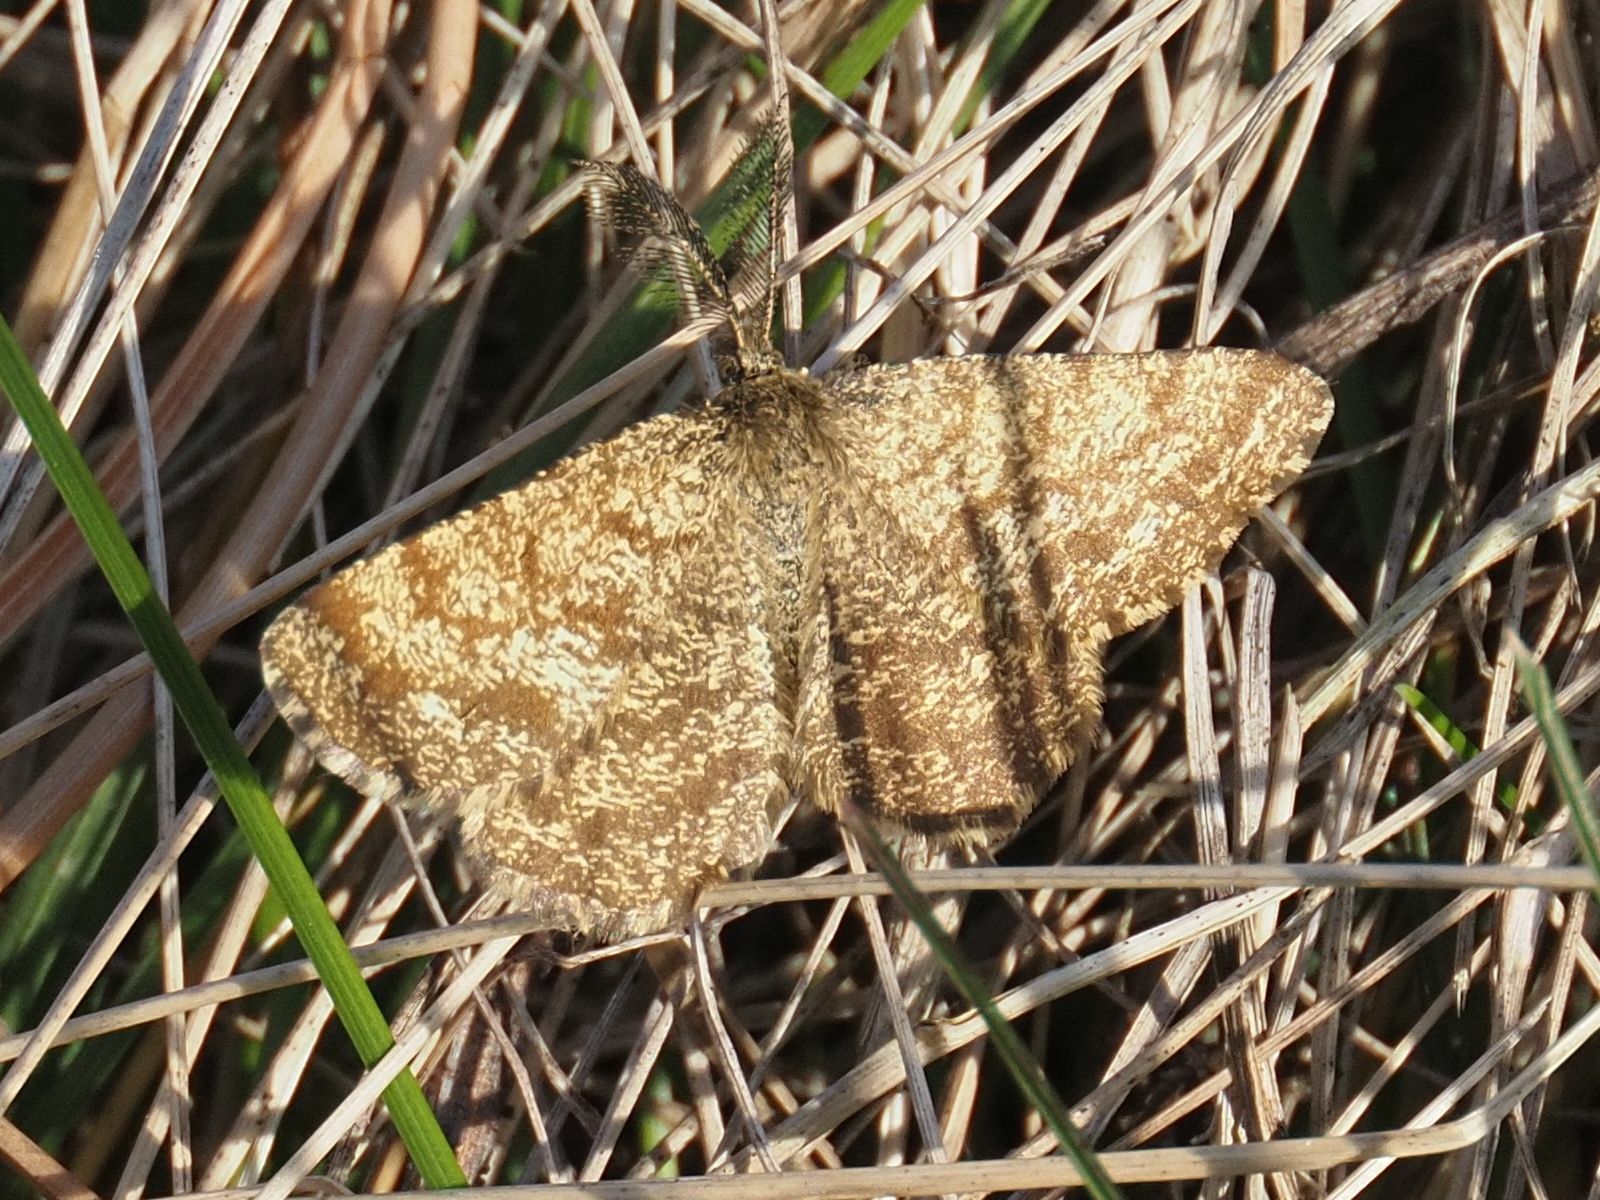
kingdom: Animalia
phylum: Arthropoda
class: Insecta
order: Lepidoptera
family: Geometridae
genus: Ematurga
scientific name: Ematurga atomaria
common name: Common heath
